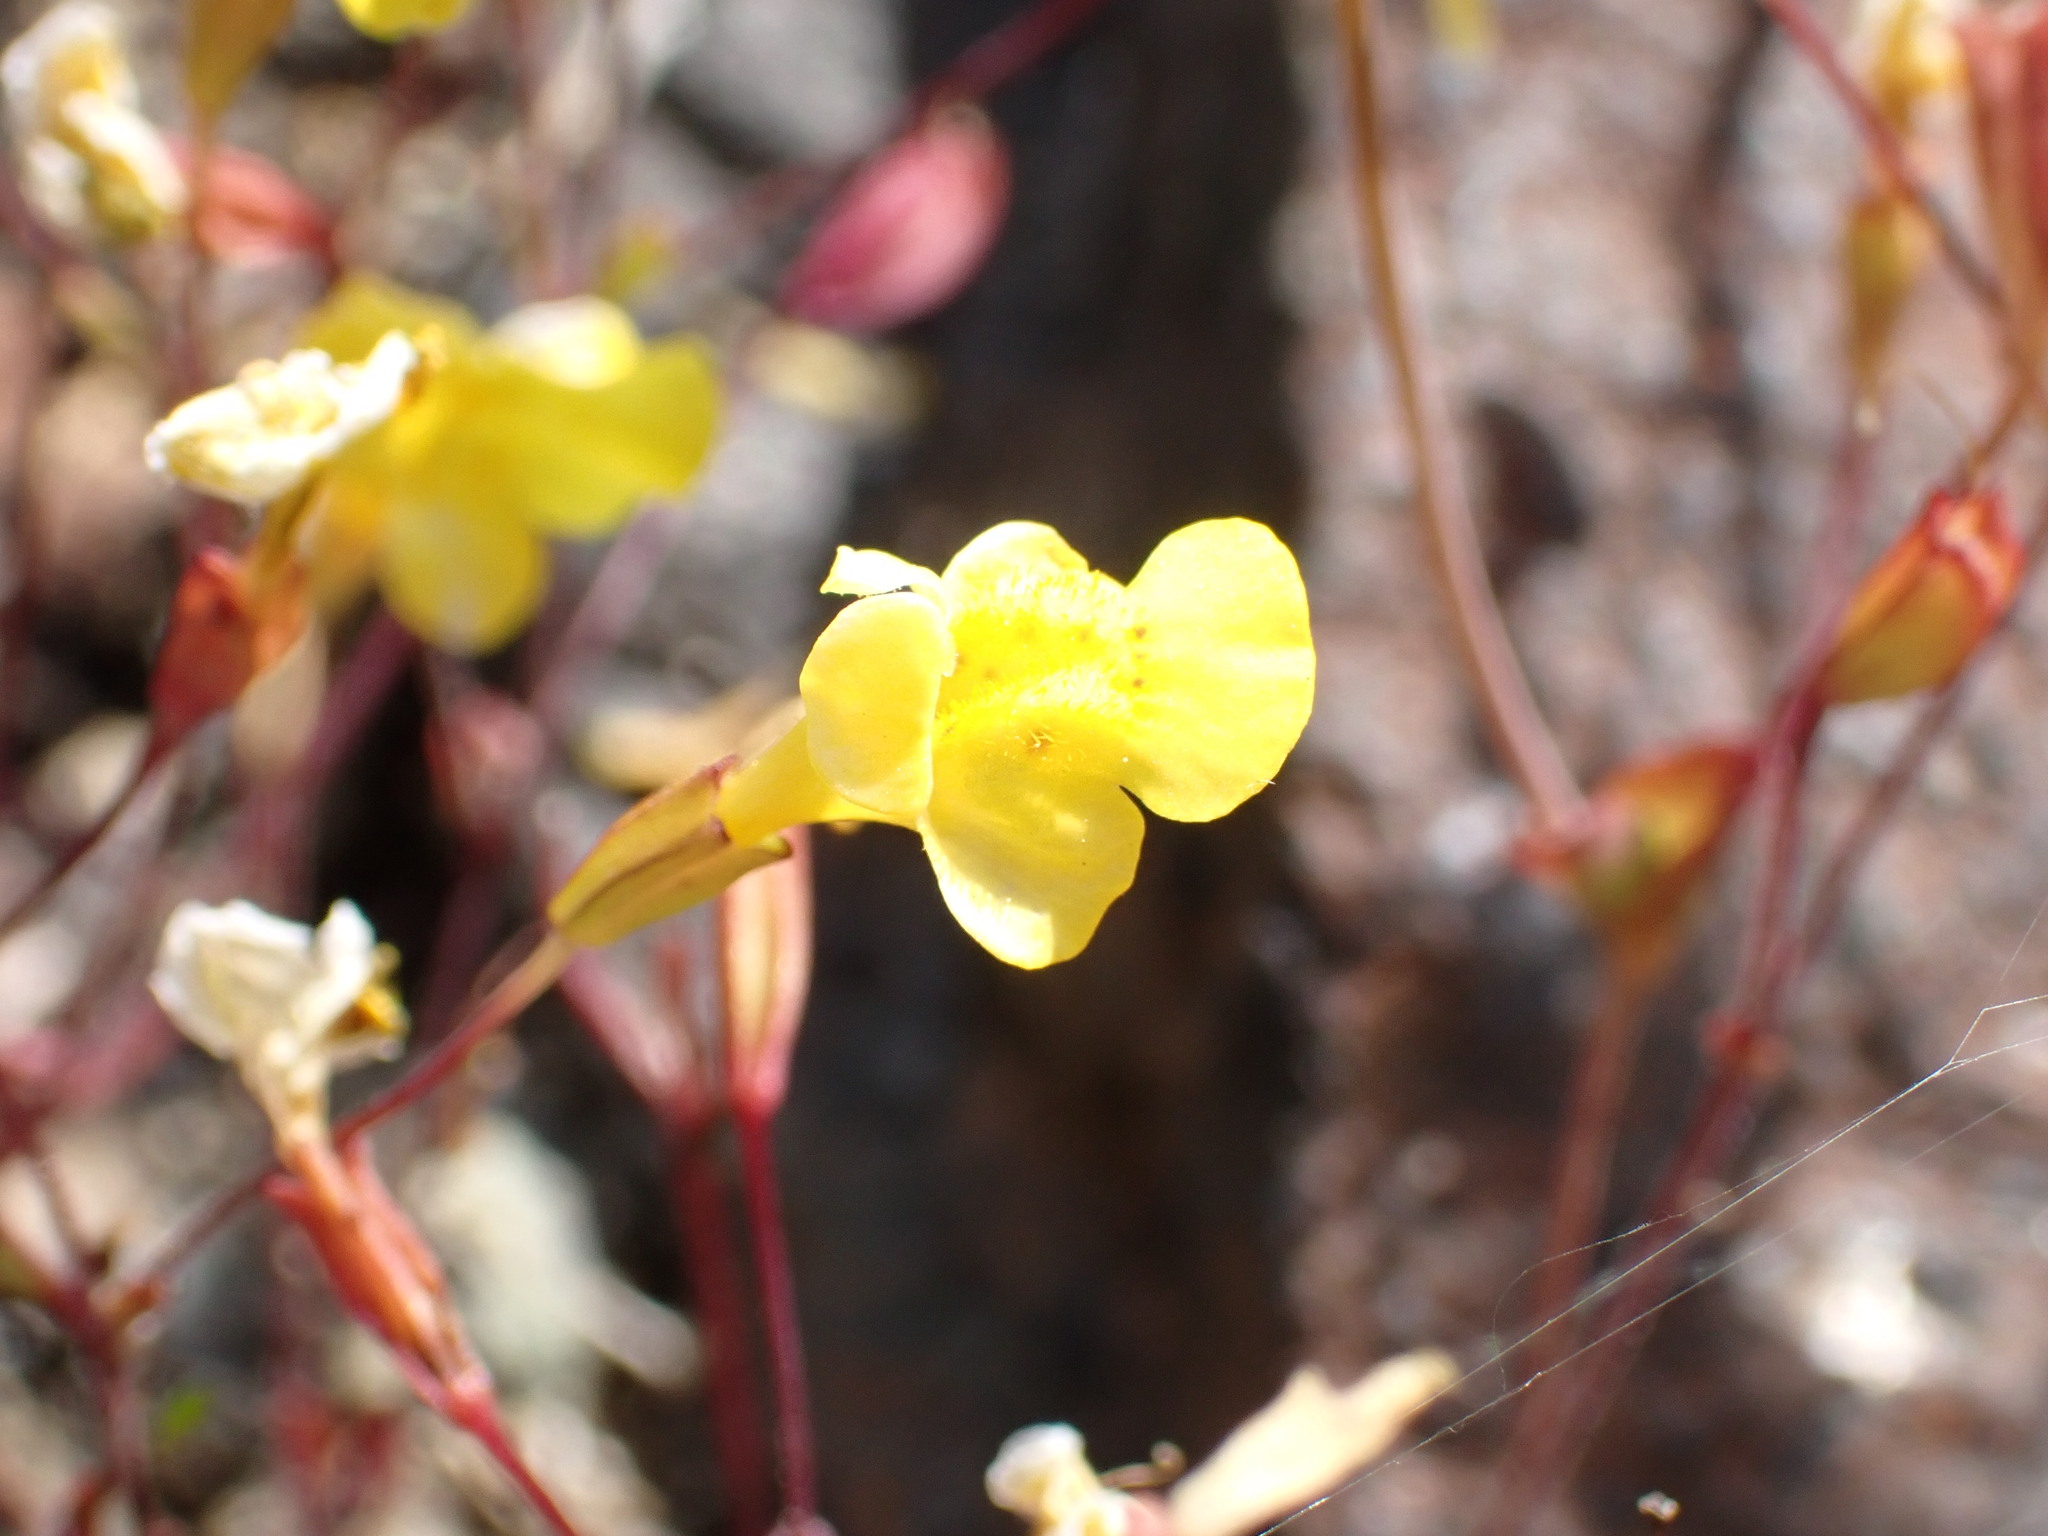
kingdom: Plantae
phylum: Tracheophyta
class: Magnoliopsida
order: Lamiales
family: Phrymaceae
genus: Erythranthe
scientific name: Erythranthe nudata
